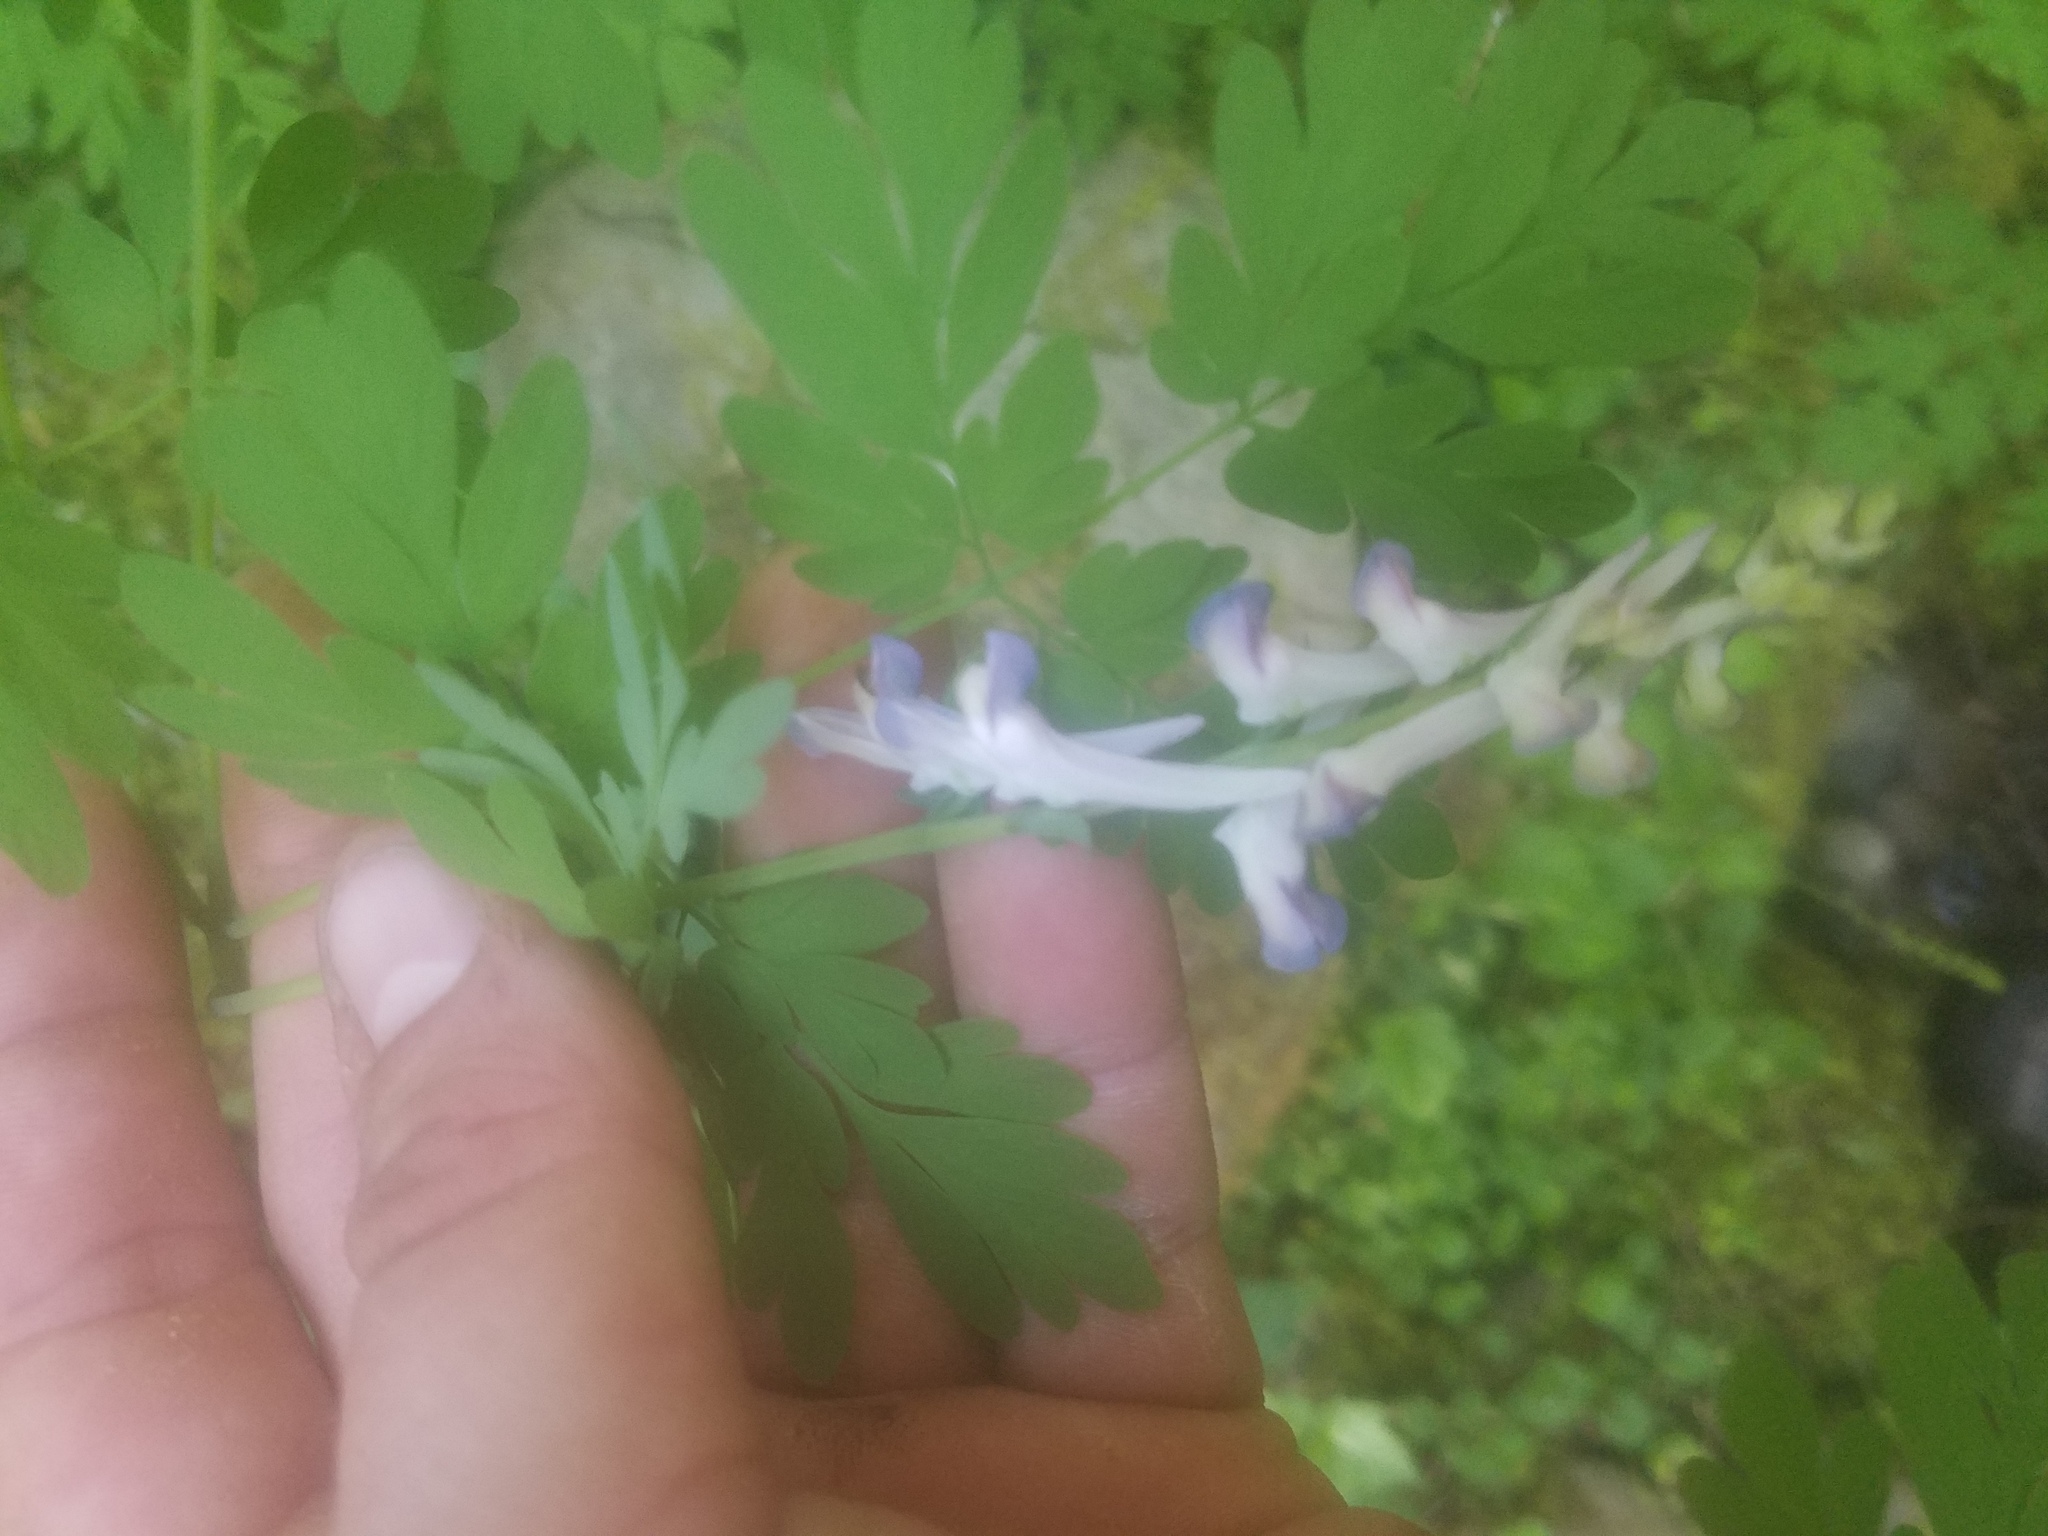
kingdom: Plantae
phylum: Tracheophyta
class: Magnoliopsida
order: Ranunculales
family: Papaveraceae
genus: Corydalis
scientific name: Corydalis scouleri
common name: Scouler's corydalis
